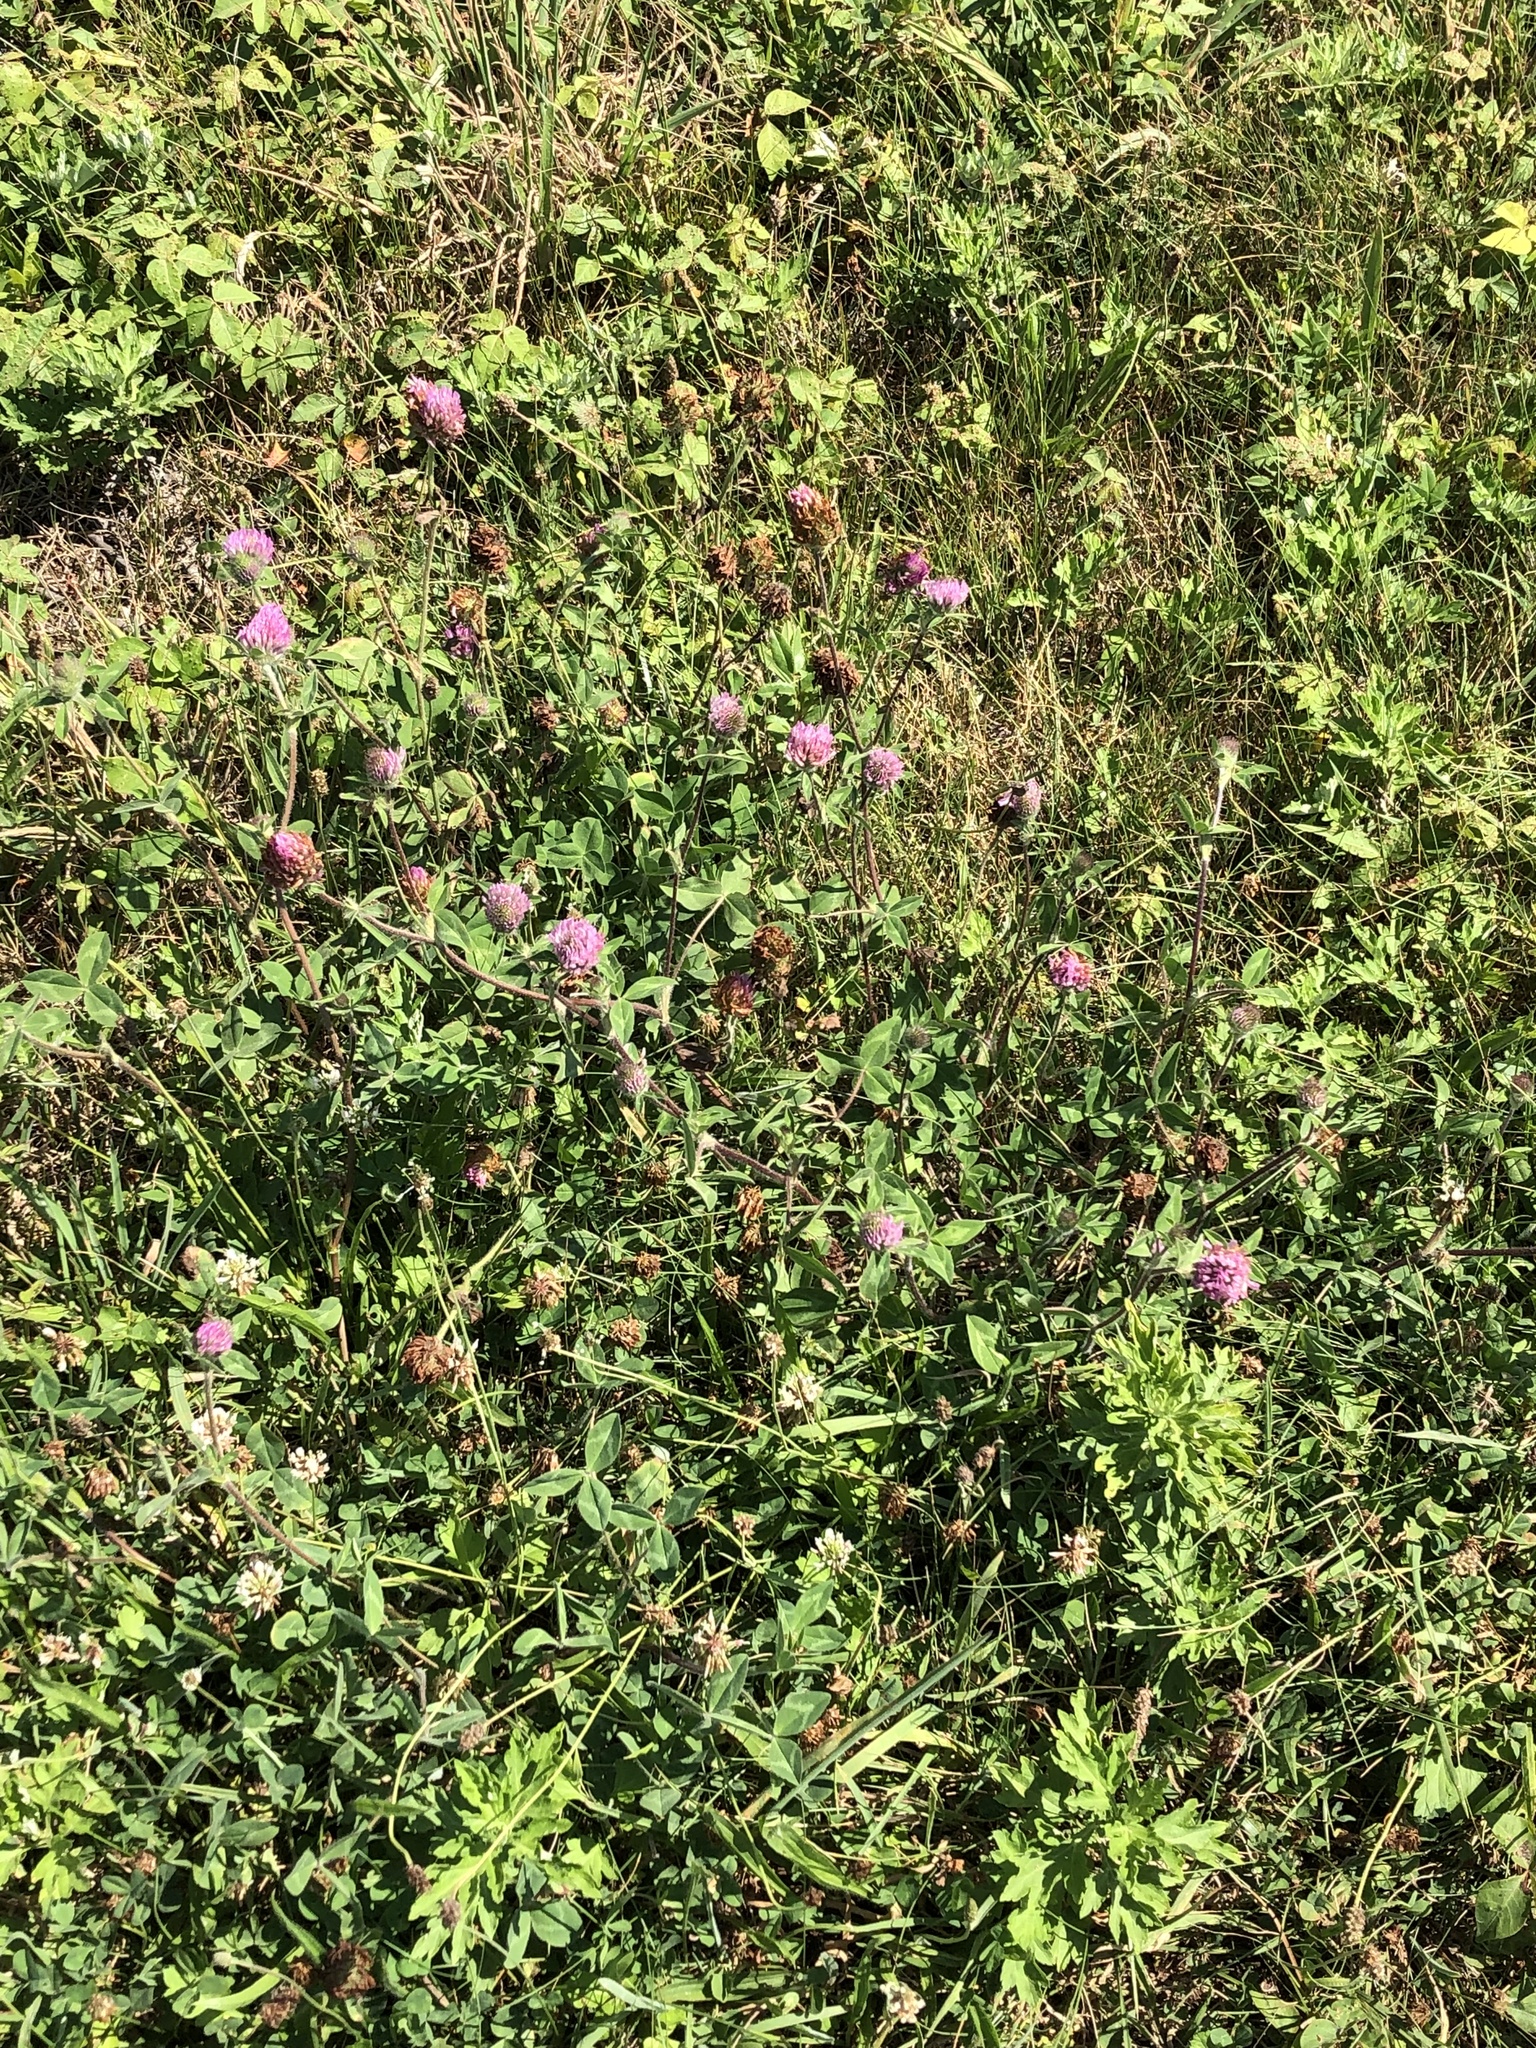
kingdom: Plantae
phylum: Tracheophyta
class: Magnoliopsida
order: Fabales
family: Fabaceae
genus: Trifolium
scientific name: Trifolium pratense
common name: Red clover
